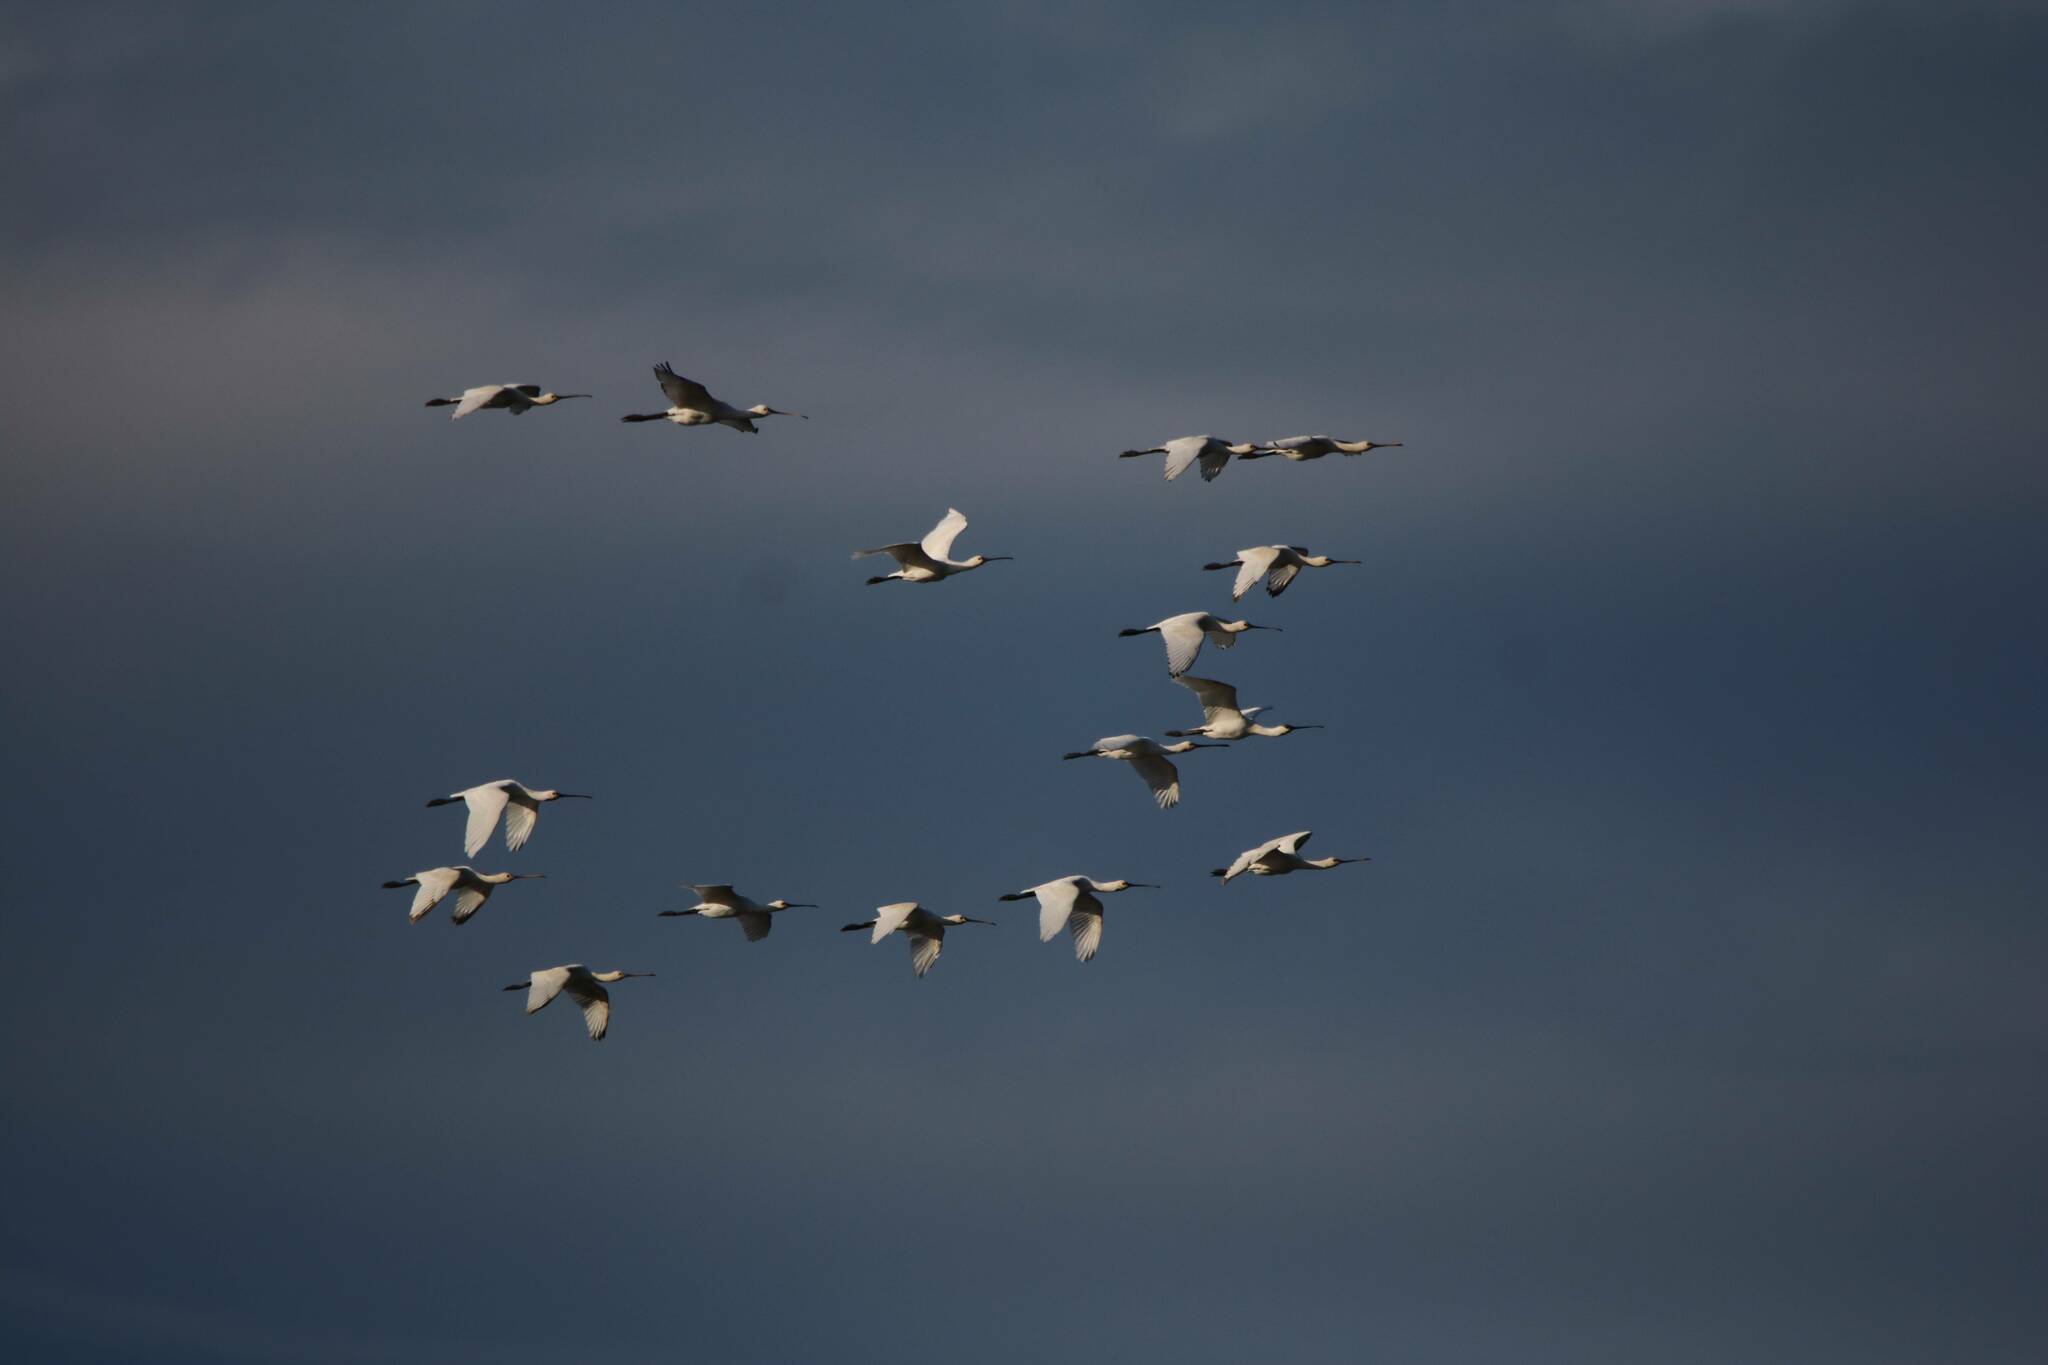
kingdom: Animalia
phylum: Chordata
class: Aves
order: Pelecaniformes
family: Threskiornithidae
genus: Platalea
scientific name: Platalea leucorodia
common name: Eurasian spoonbill
